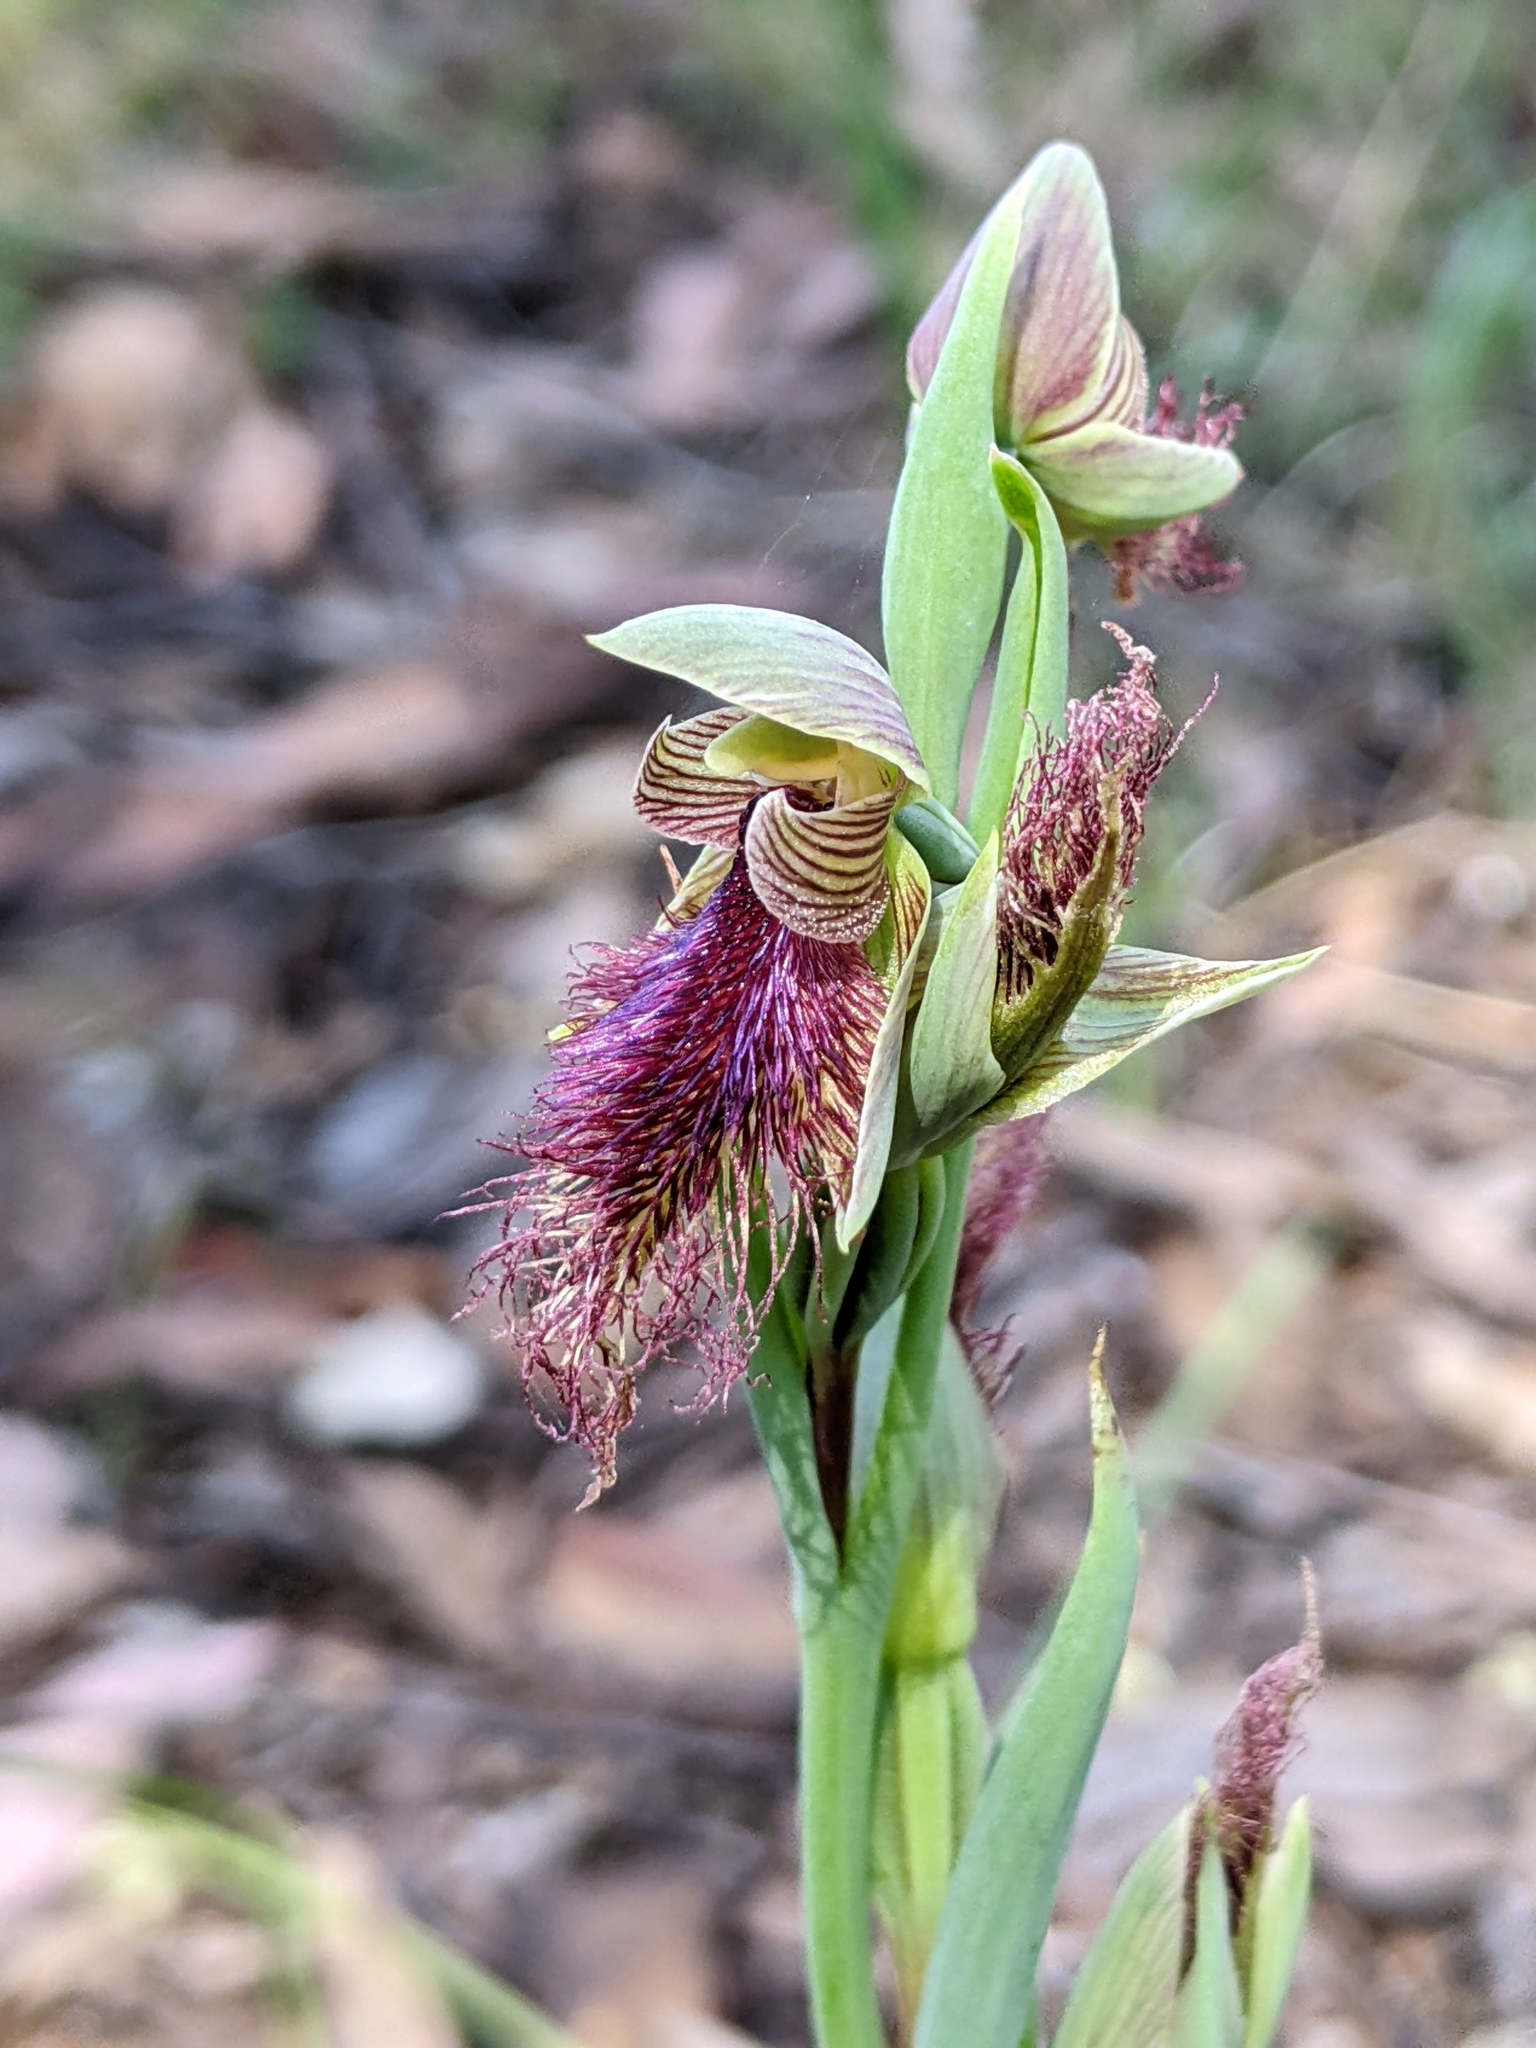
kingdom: Plantae
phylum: Tracheophyta
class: Liliopsida
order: Asparagales
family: Orchidaceae
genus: Calochilus
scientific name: Calochilus robertsonii
